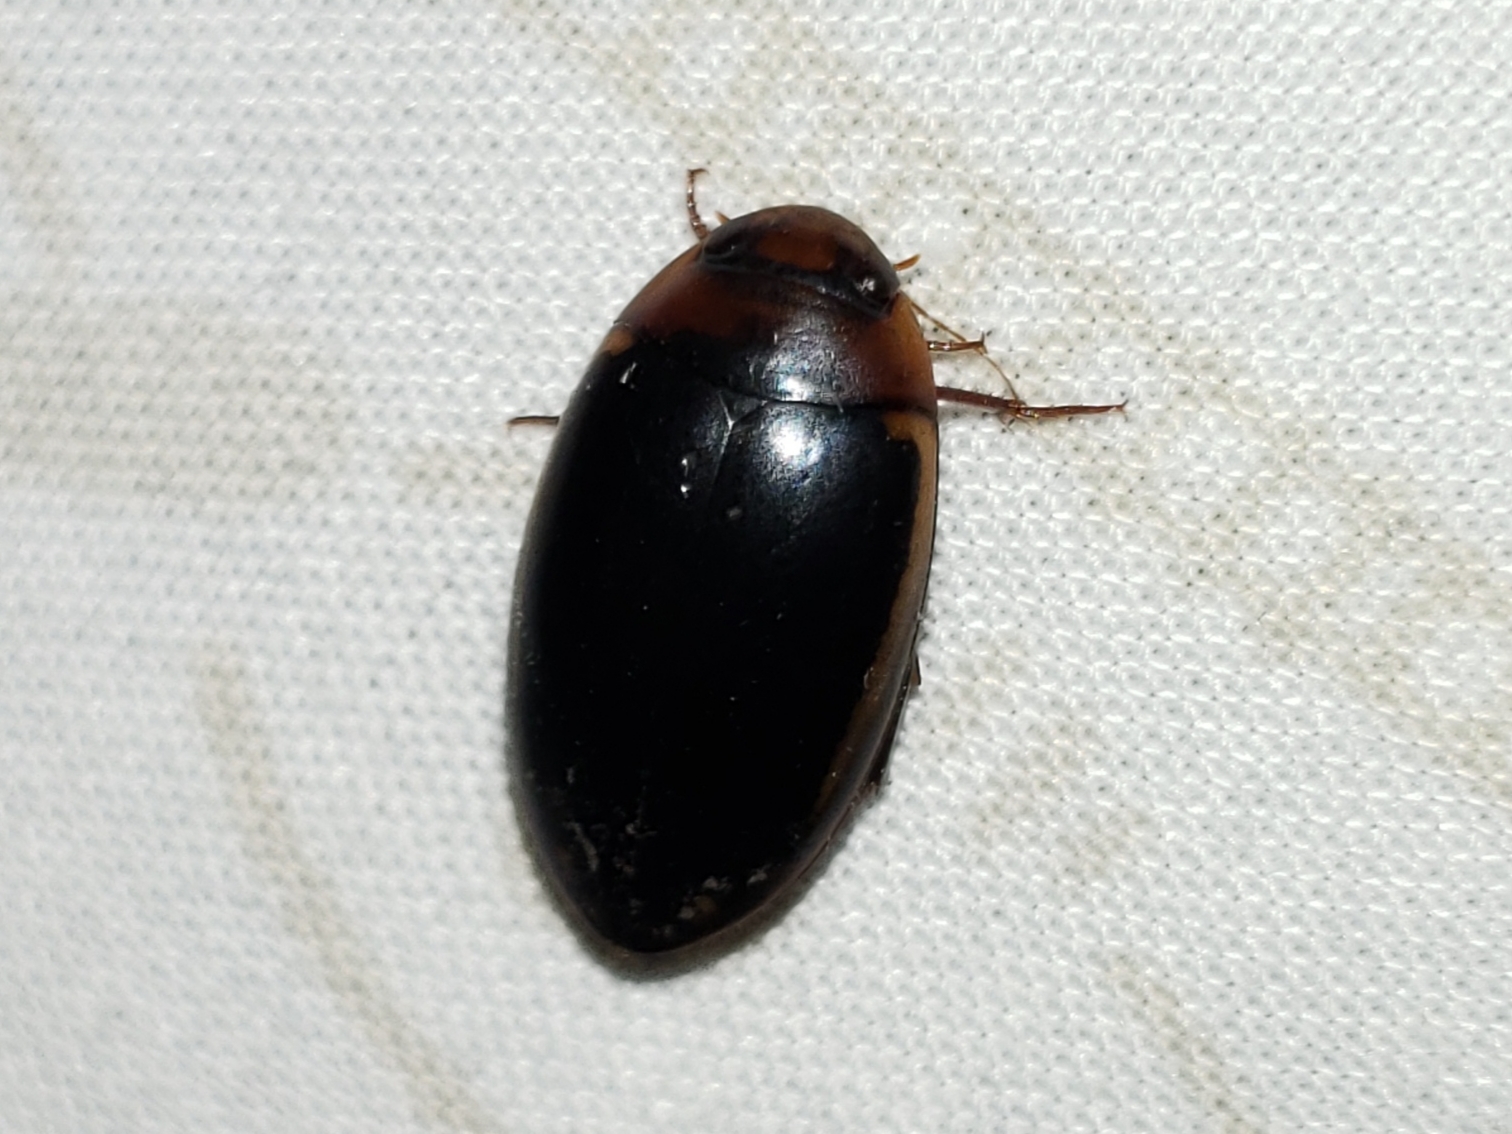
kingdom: Animalia
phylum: Arthropoda
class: Insecta
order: Coleoptera
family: Dytiscidae
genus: Hydaticus
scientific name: Hydaticus bimarginatus
